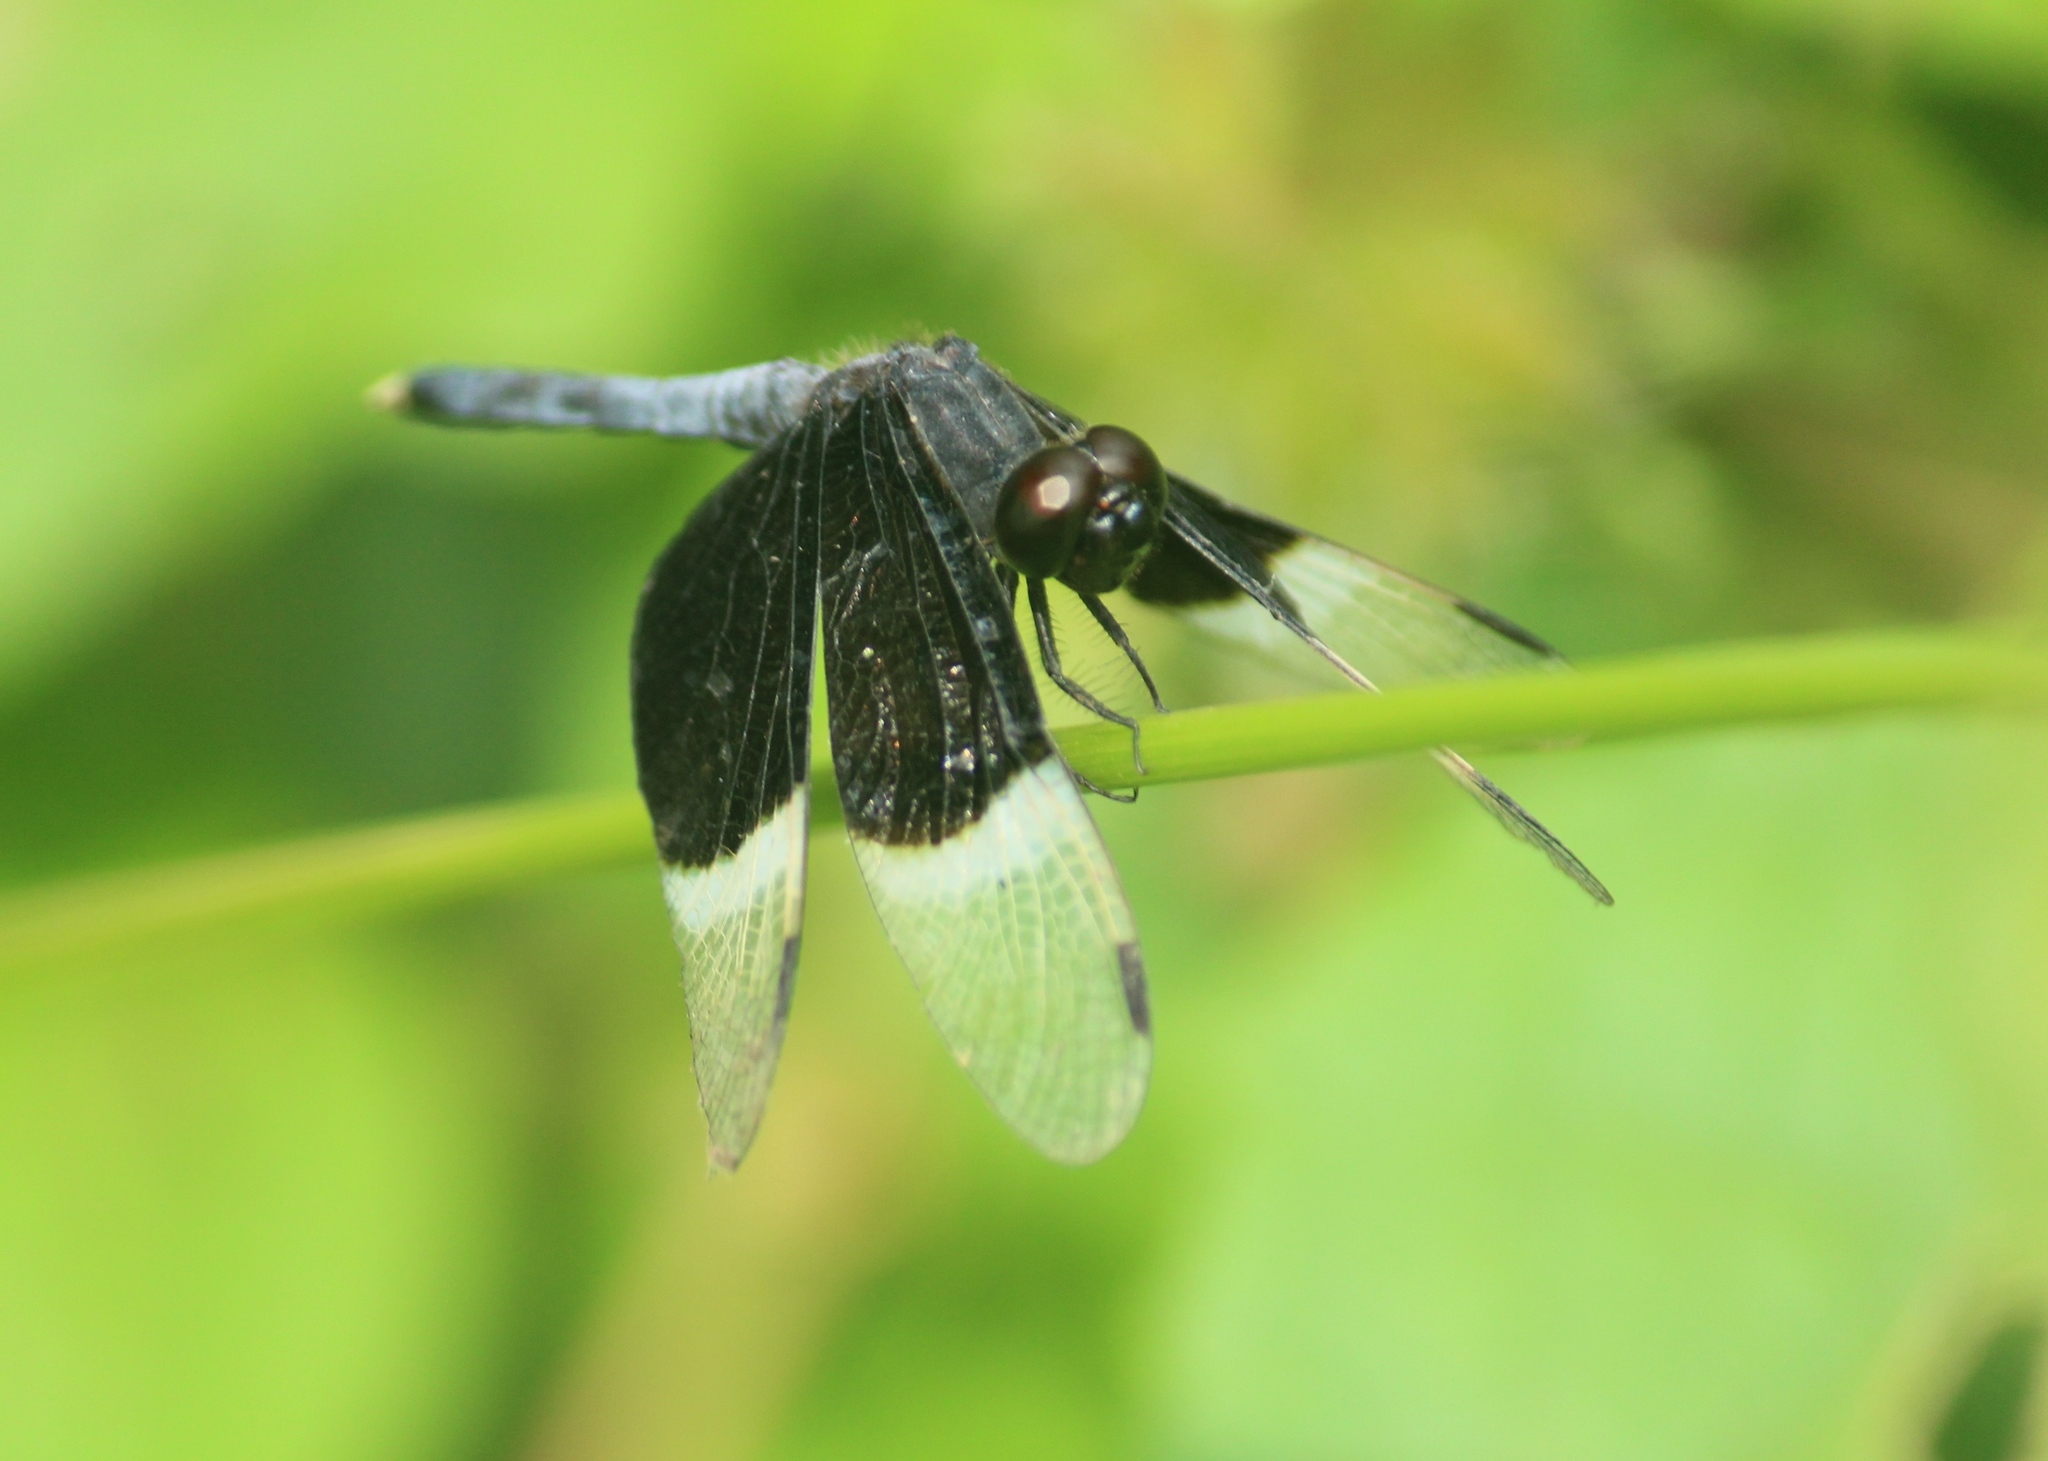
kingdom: Animalia
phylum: Arthropoda
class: Insecta
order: Odonata
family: Libellulidae
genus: Neurothemis
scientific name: Neurothemis tullia
